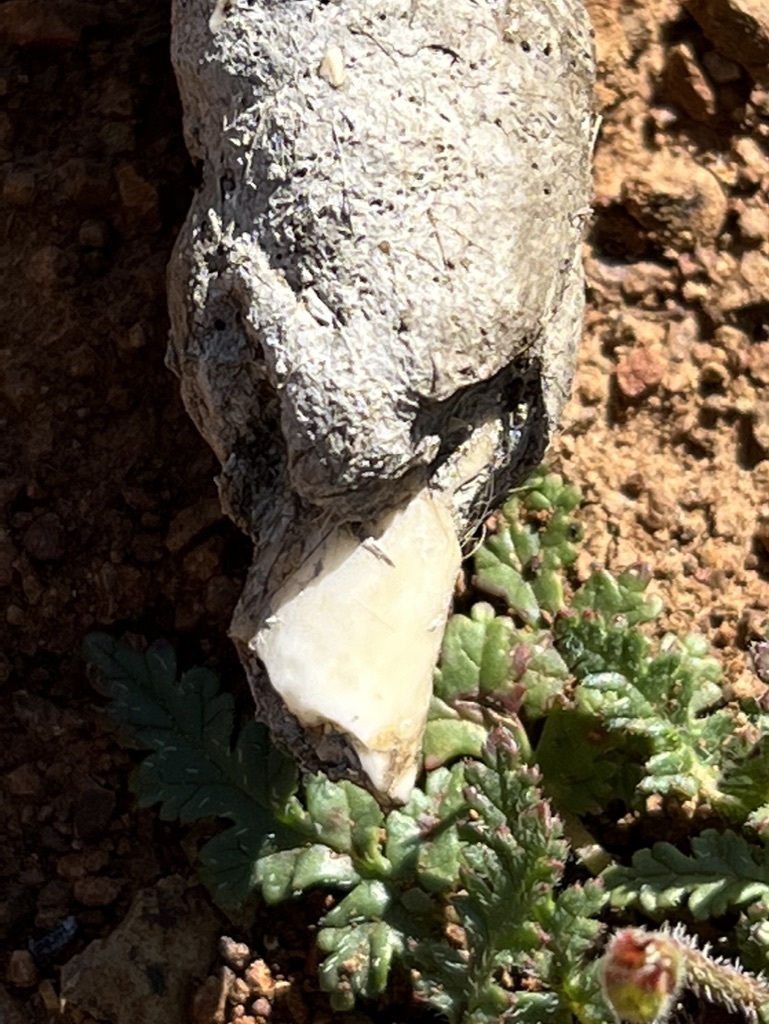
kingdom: Animalia
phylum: Chordata
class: Mammalia
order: Carnivora
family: Felidae
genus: Lynx
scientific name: Lynx rufus
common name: Bobcat
